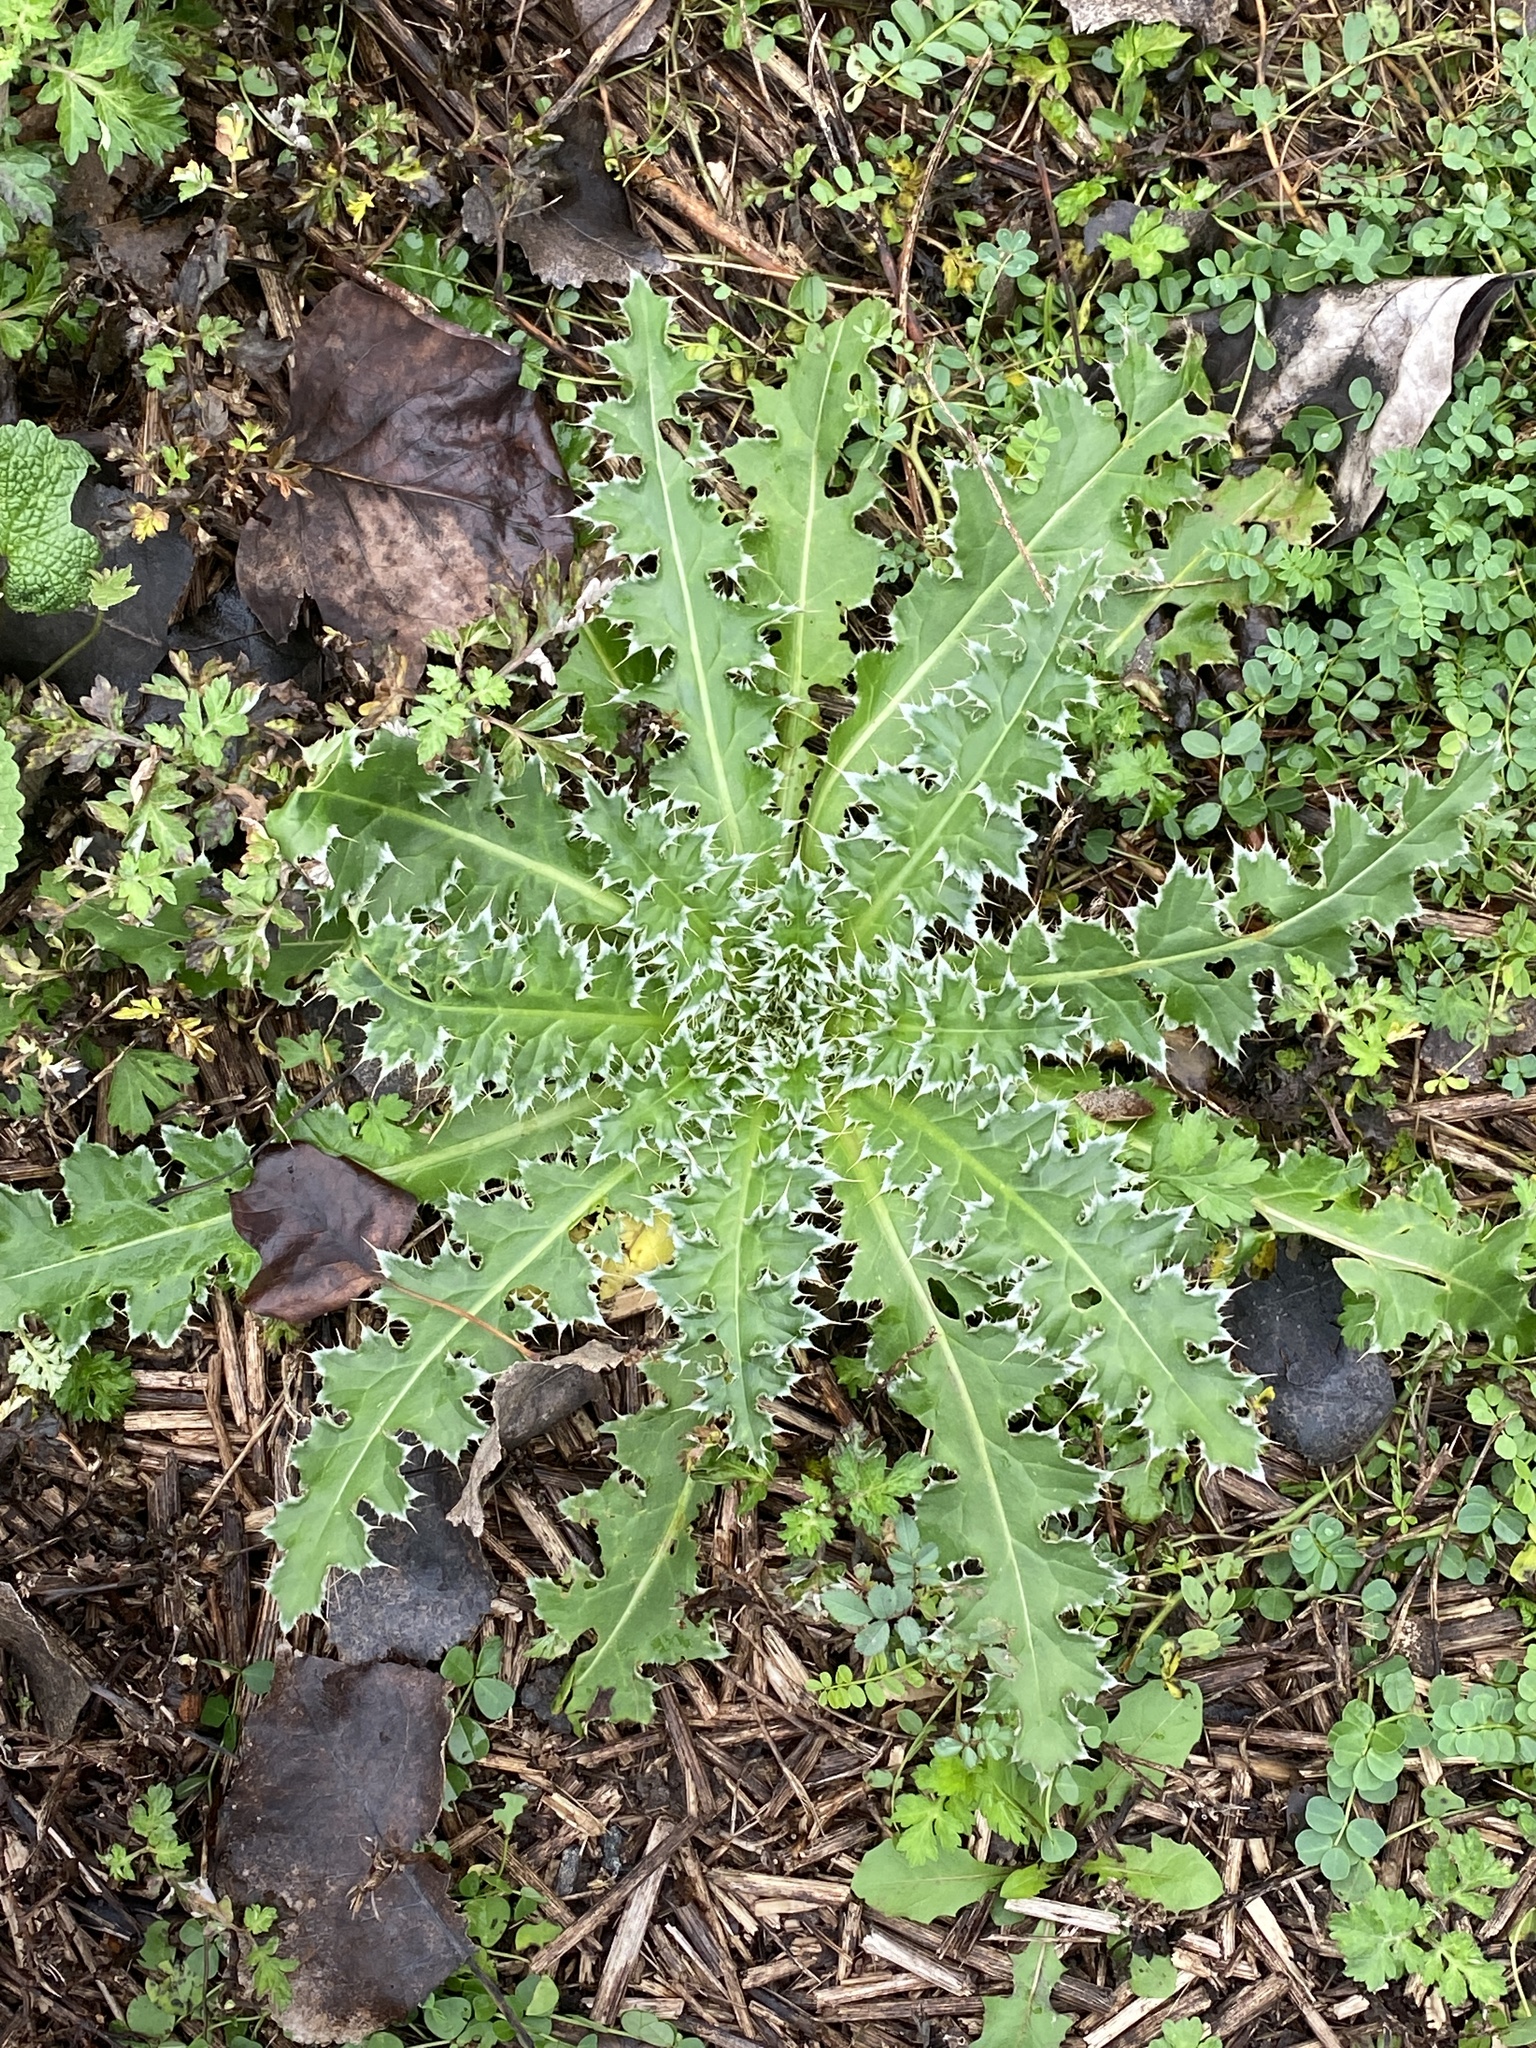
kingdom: Plantae
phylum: Tracheophyta
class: Magnoliopsida
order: Asterales
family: Asteraceae
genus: Carduus
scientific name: Carduus nutans
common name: Musk thistle
